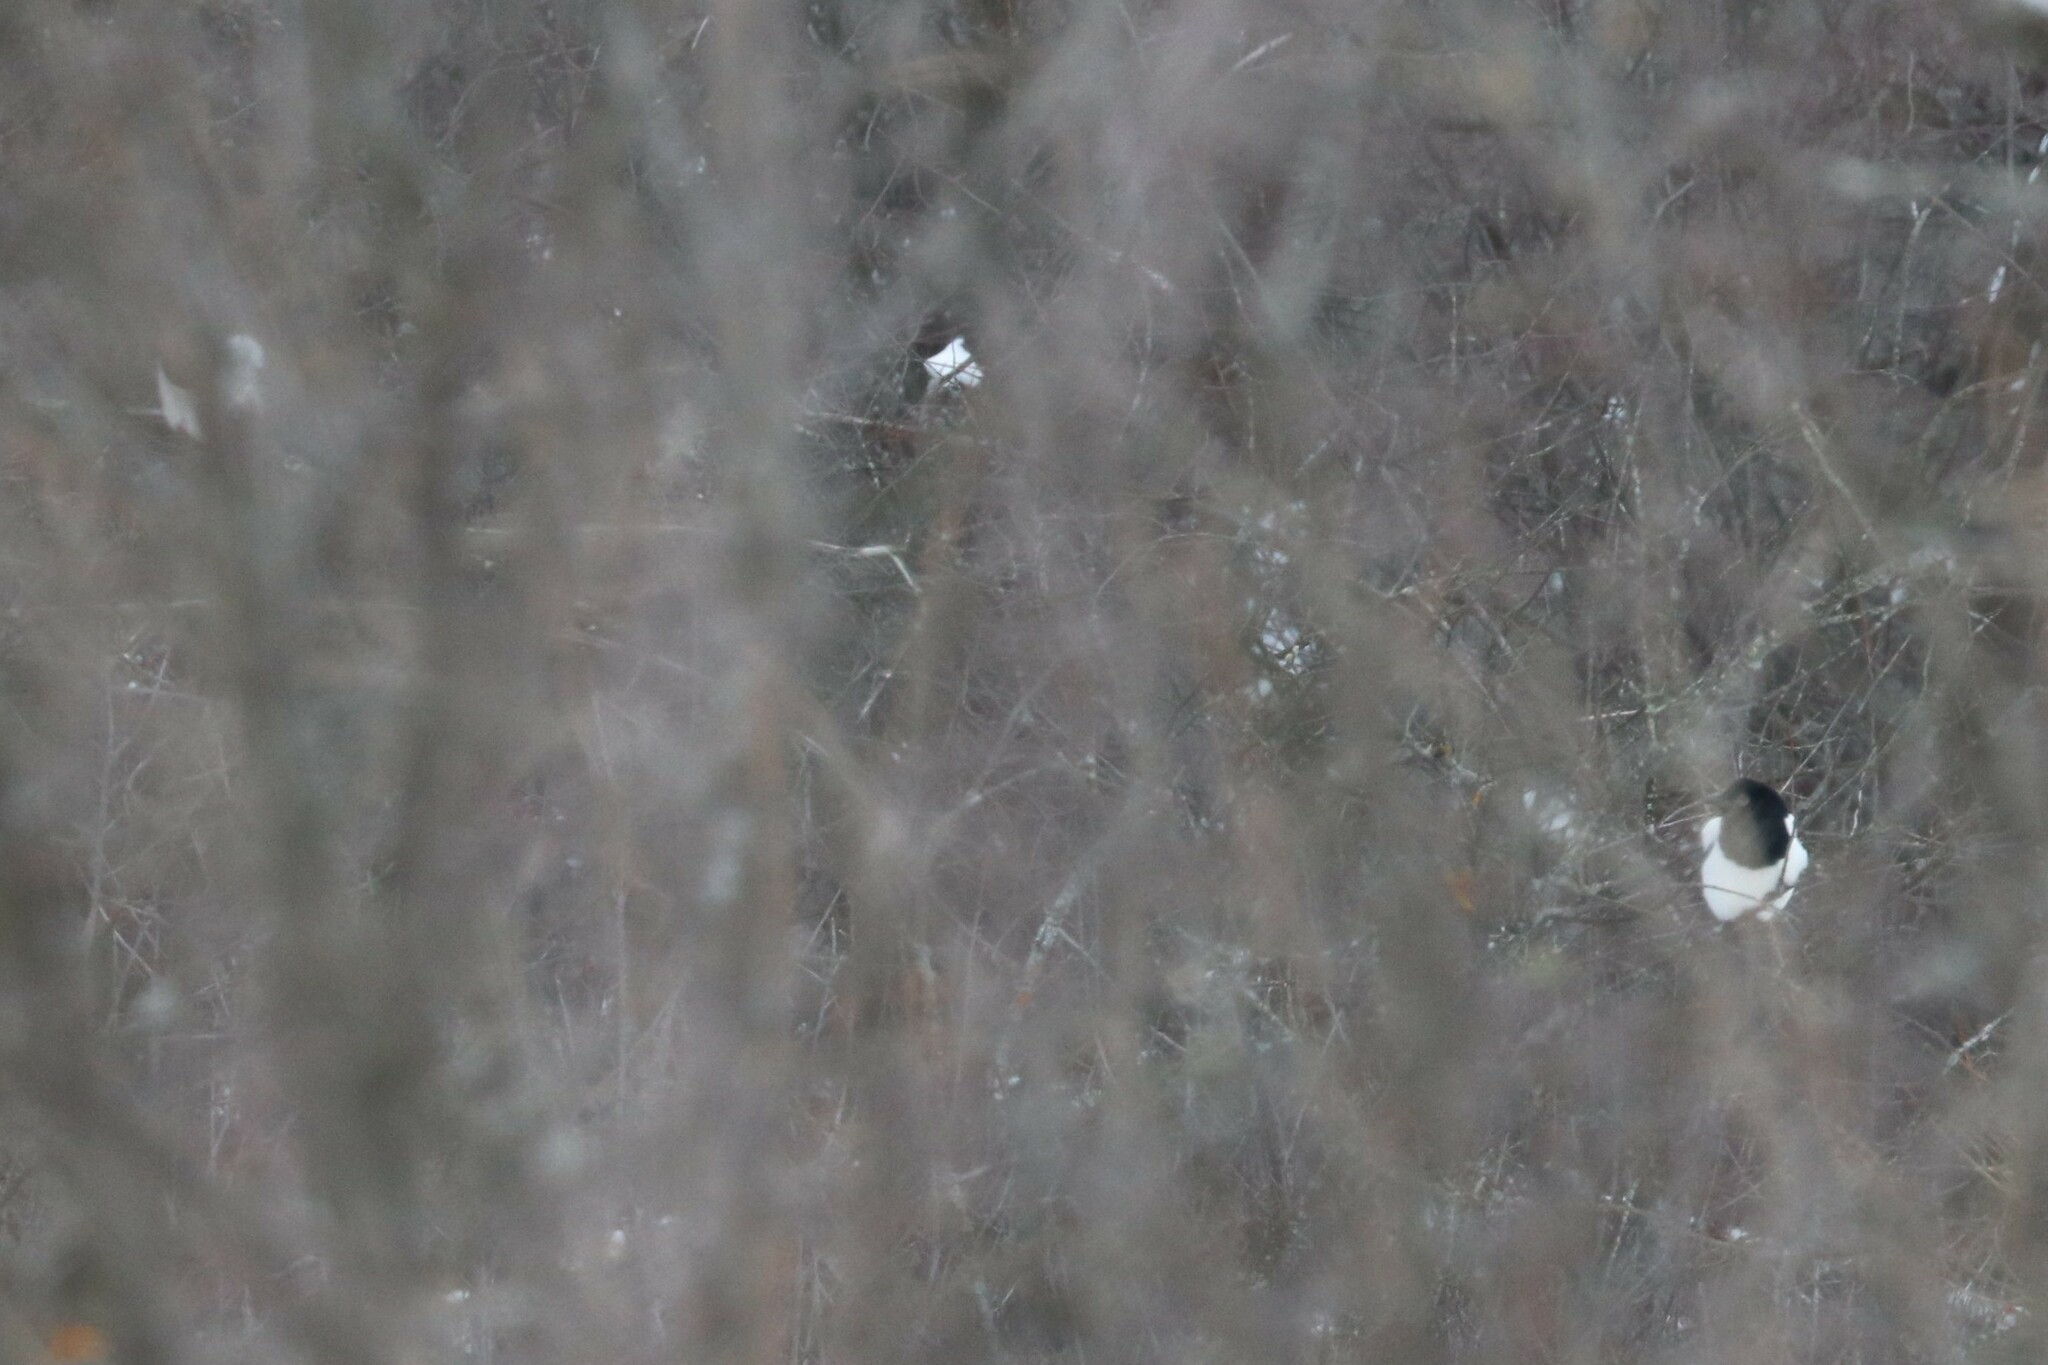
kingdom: Animalia
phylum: Chordata
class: Aves
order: Passeriformes
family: Corvidae
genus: Pica
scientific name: Pica pica
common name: Eurasian magpie
